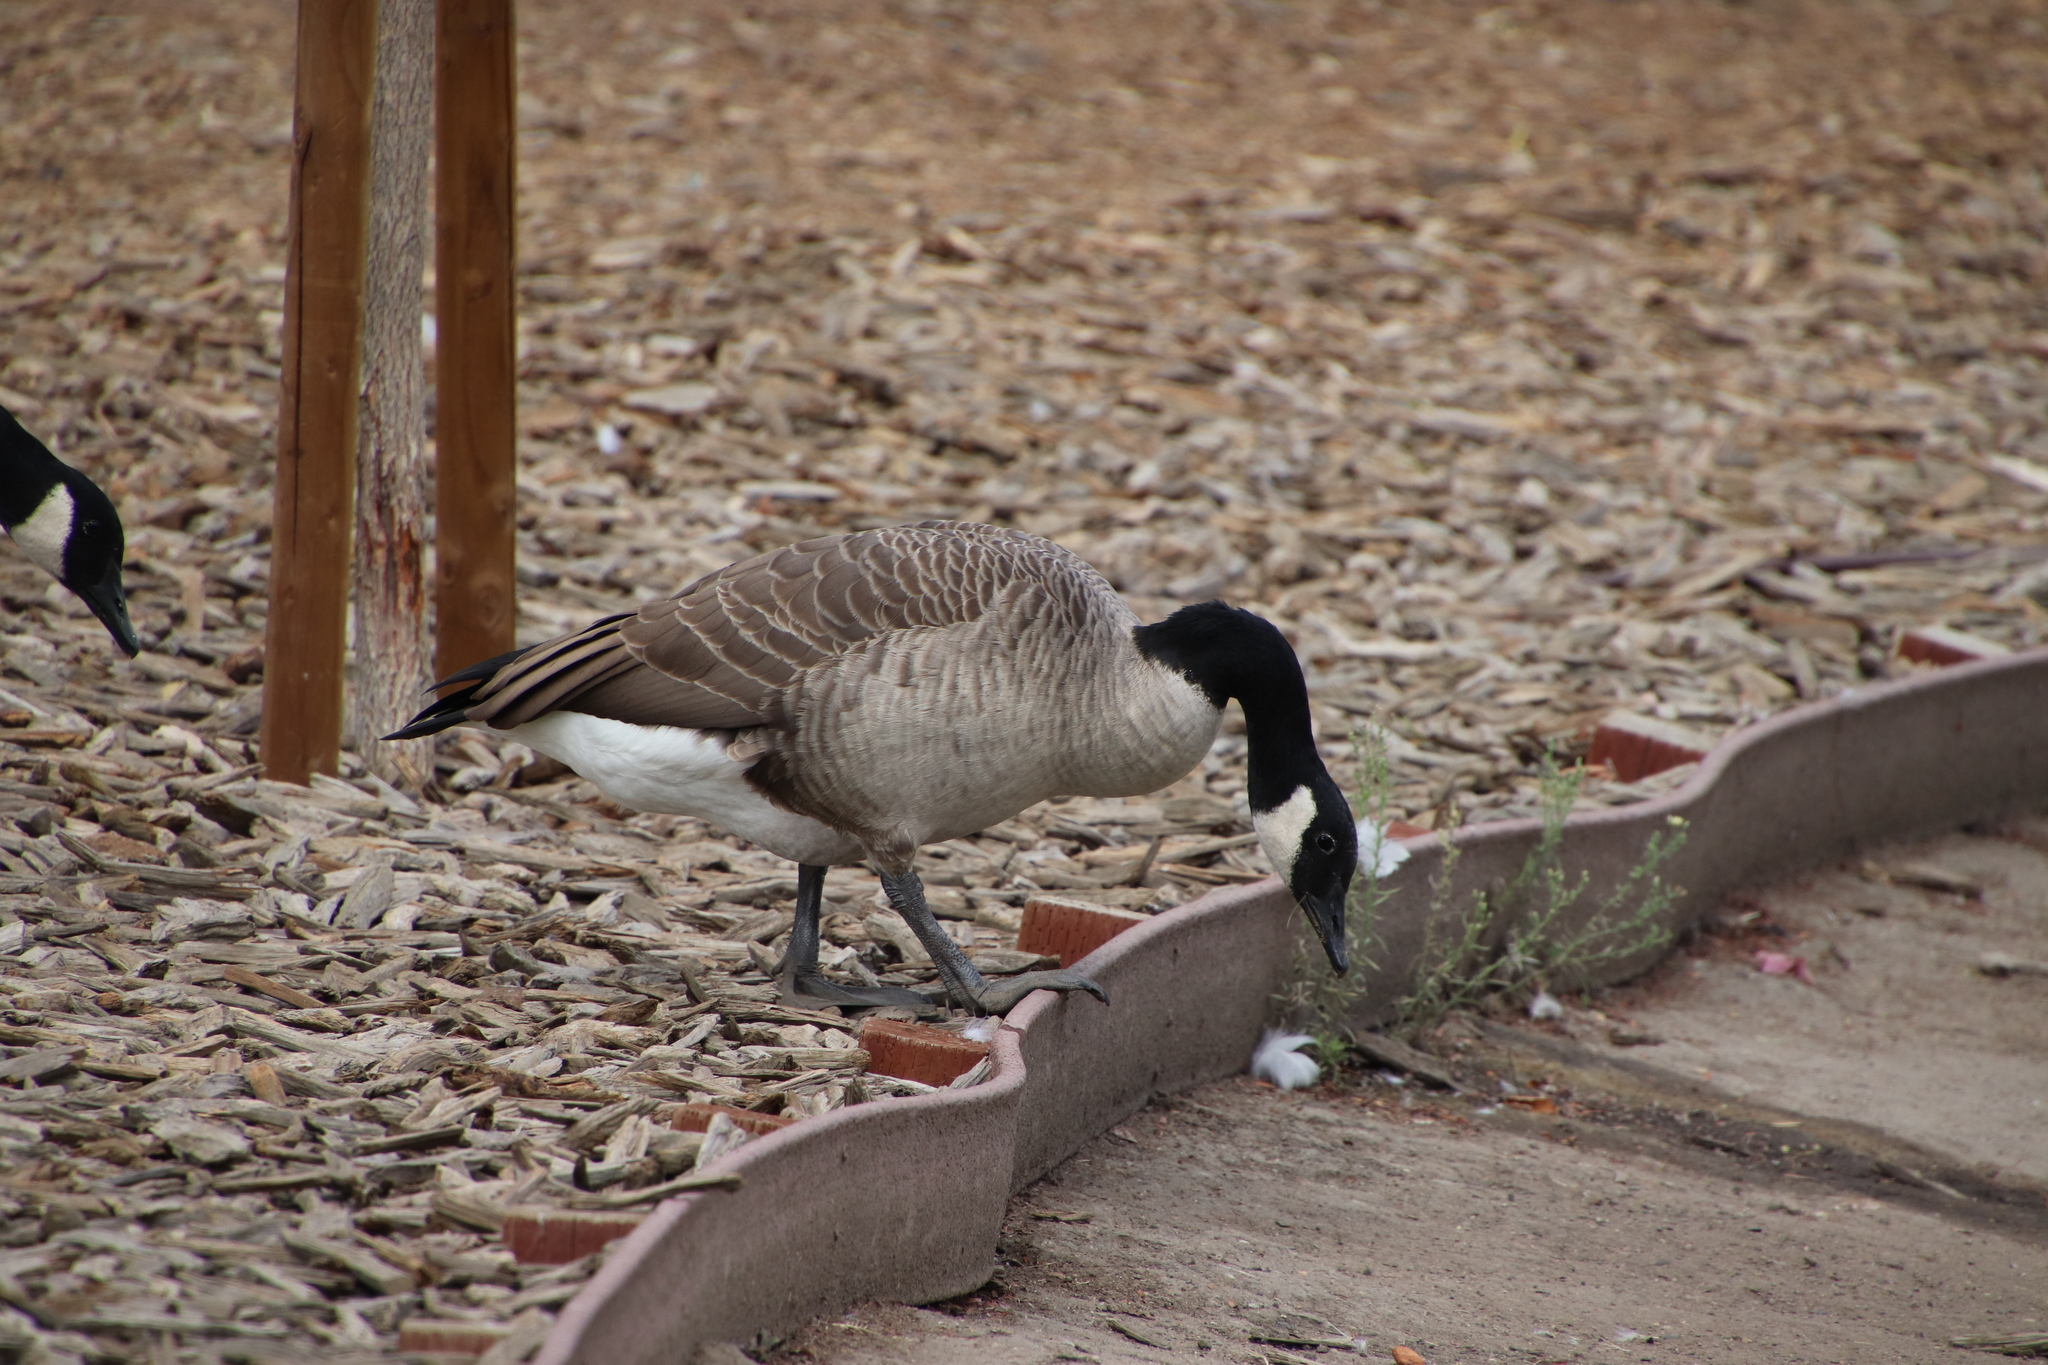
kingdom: Animalia
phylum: Chordata
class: Aves
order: Anseriformes
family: Anatidae
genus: Branta
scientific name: Branta canadensis
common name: Canada goose
